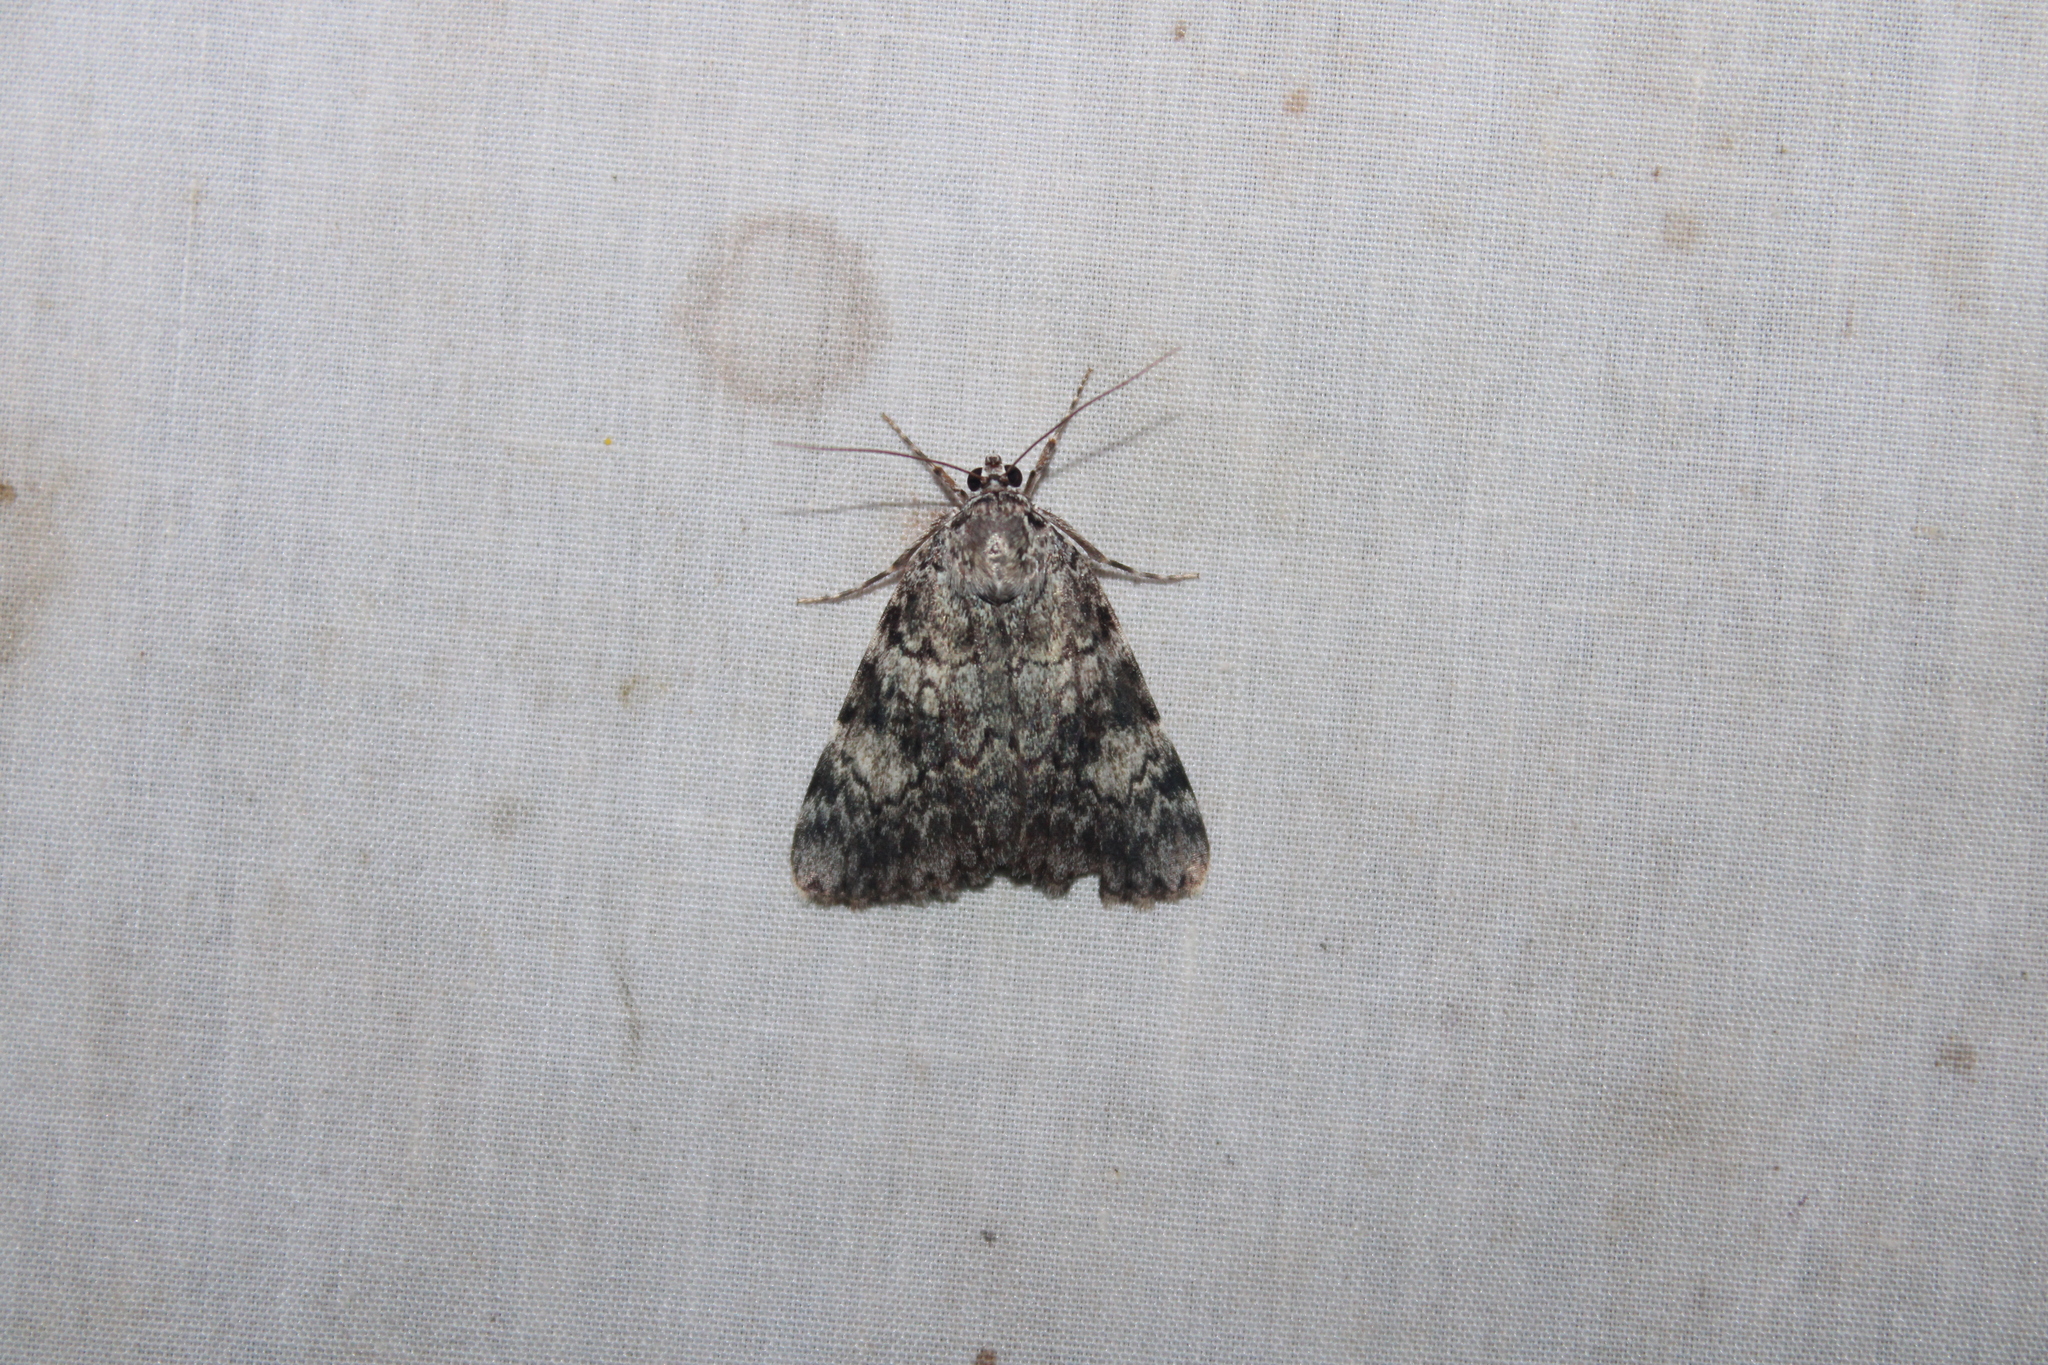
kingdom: Animalia
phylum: Arthropoda
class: Insecta
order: Lepidoptera
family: Erebidae
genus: Catocala
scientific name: Catocala lineella
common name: Little lined underwing
